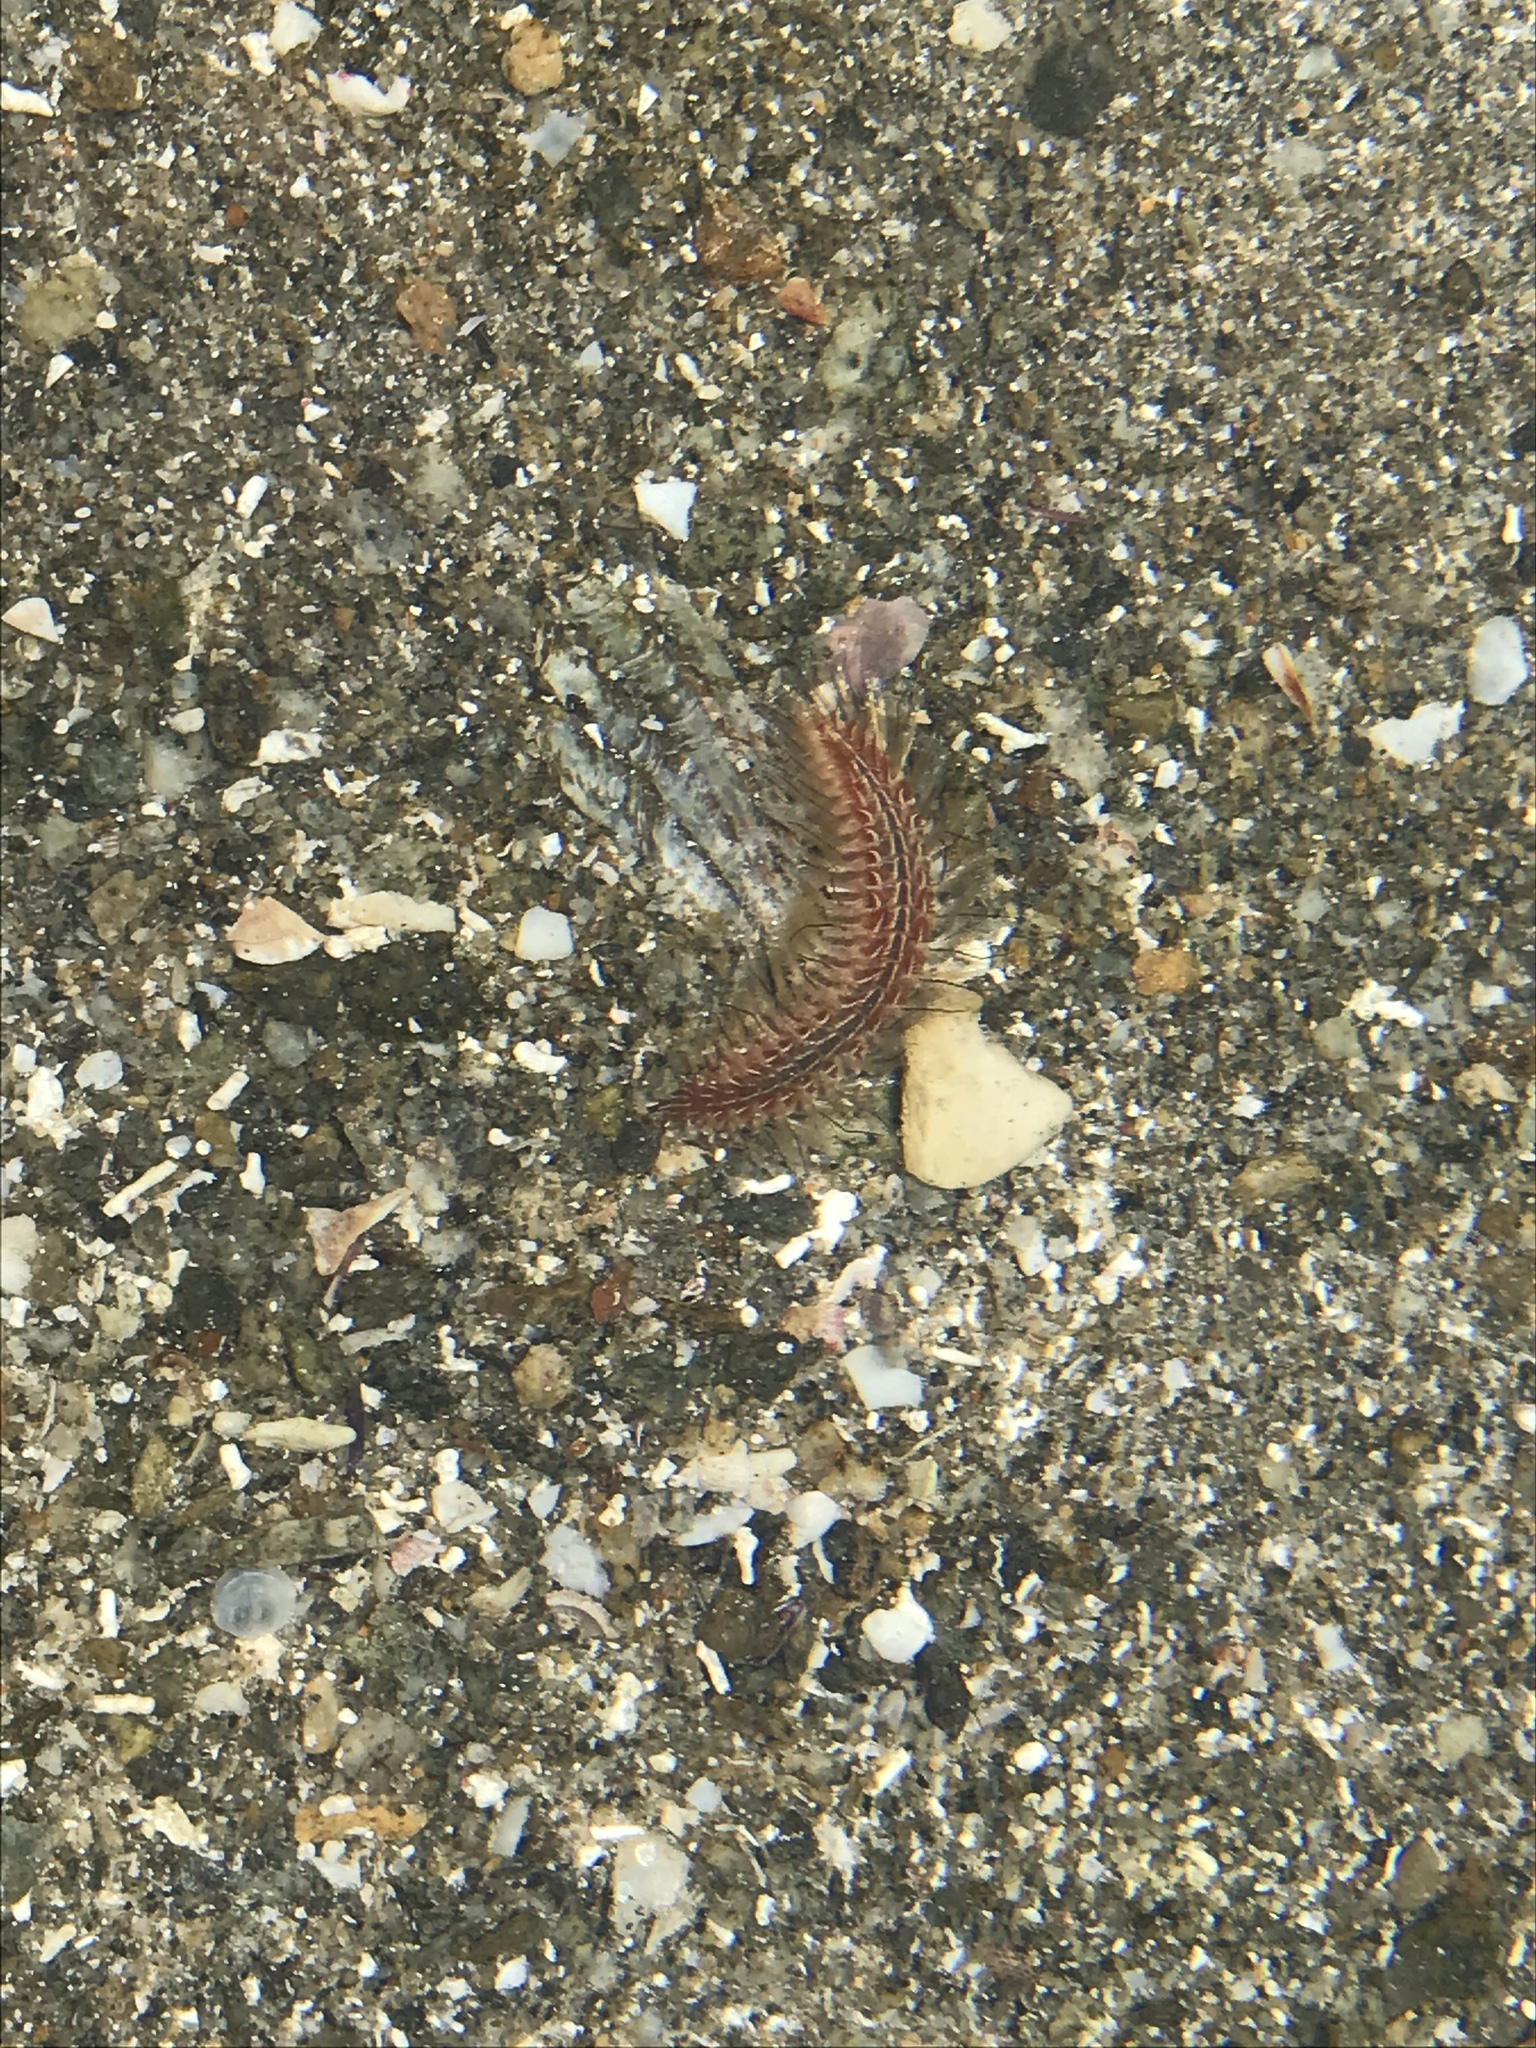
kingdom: Animalia
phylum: Annelida
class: Polychaeta
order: Amphinomida
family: Amphinomidae
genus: Chloeia
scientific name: Chloeia pseudeuglochis
